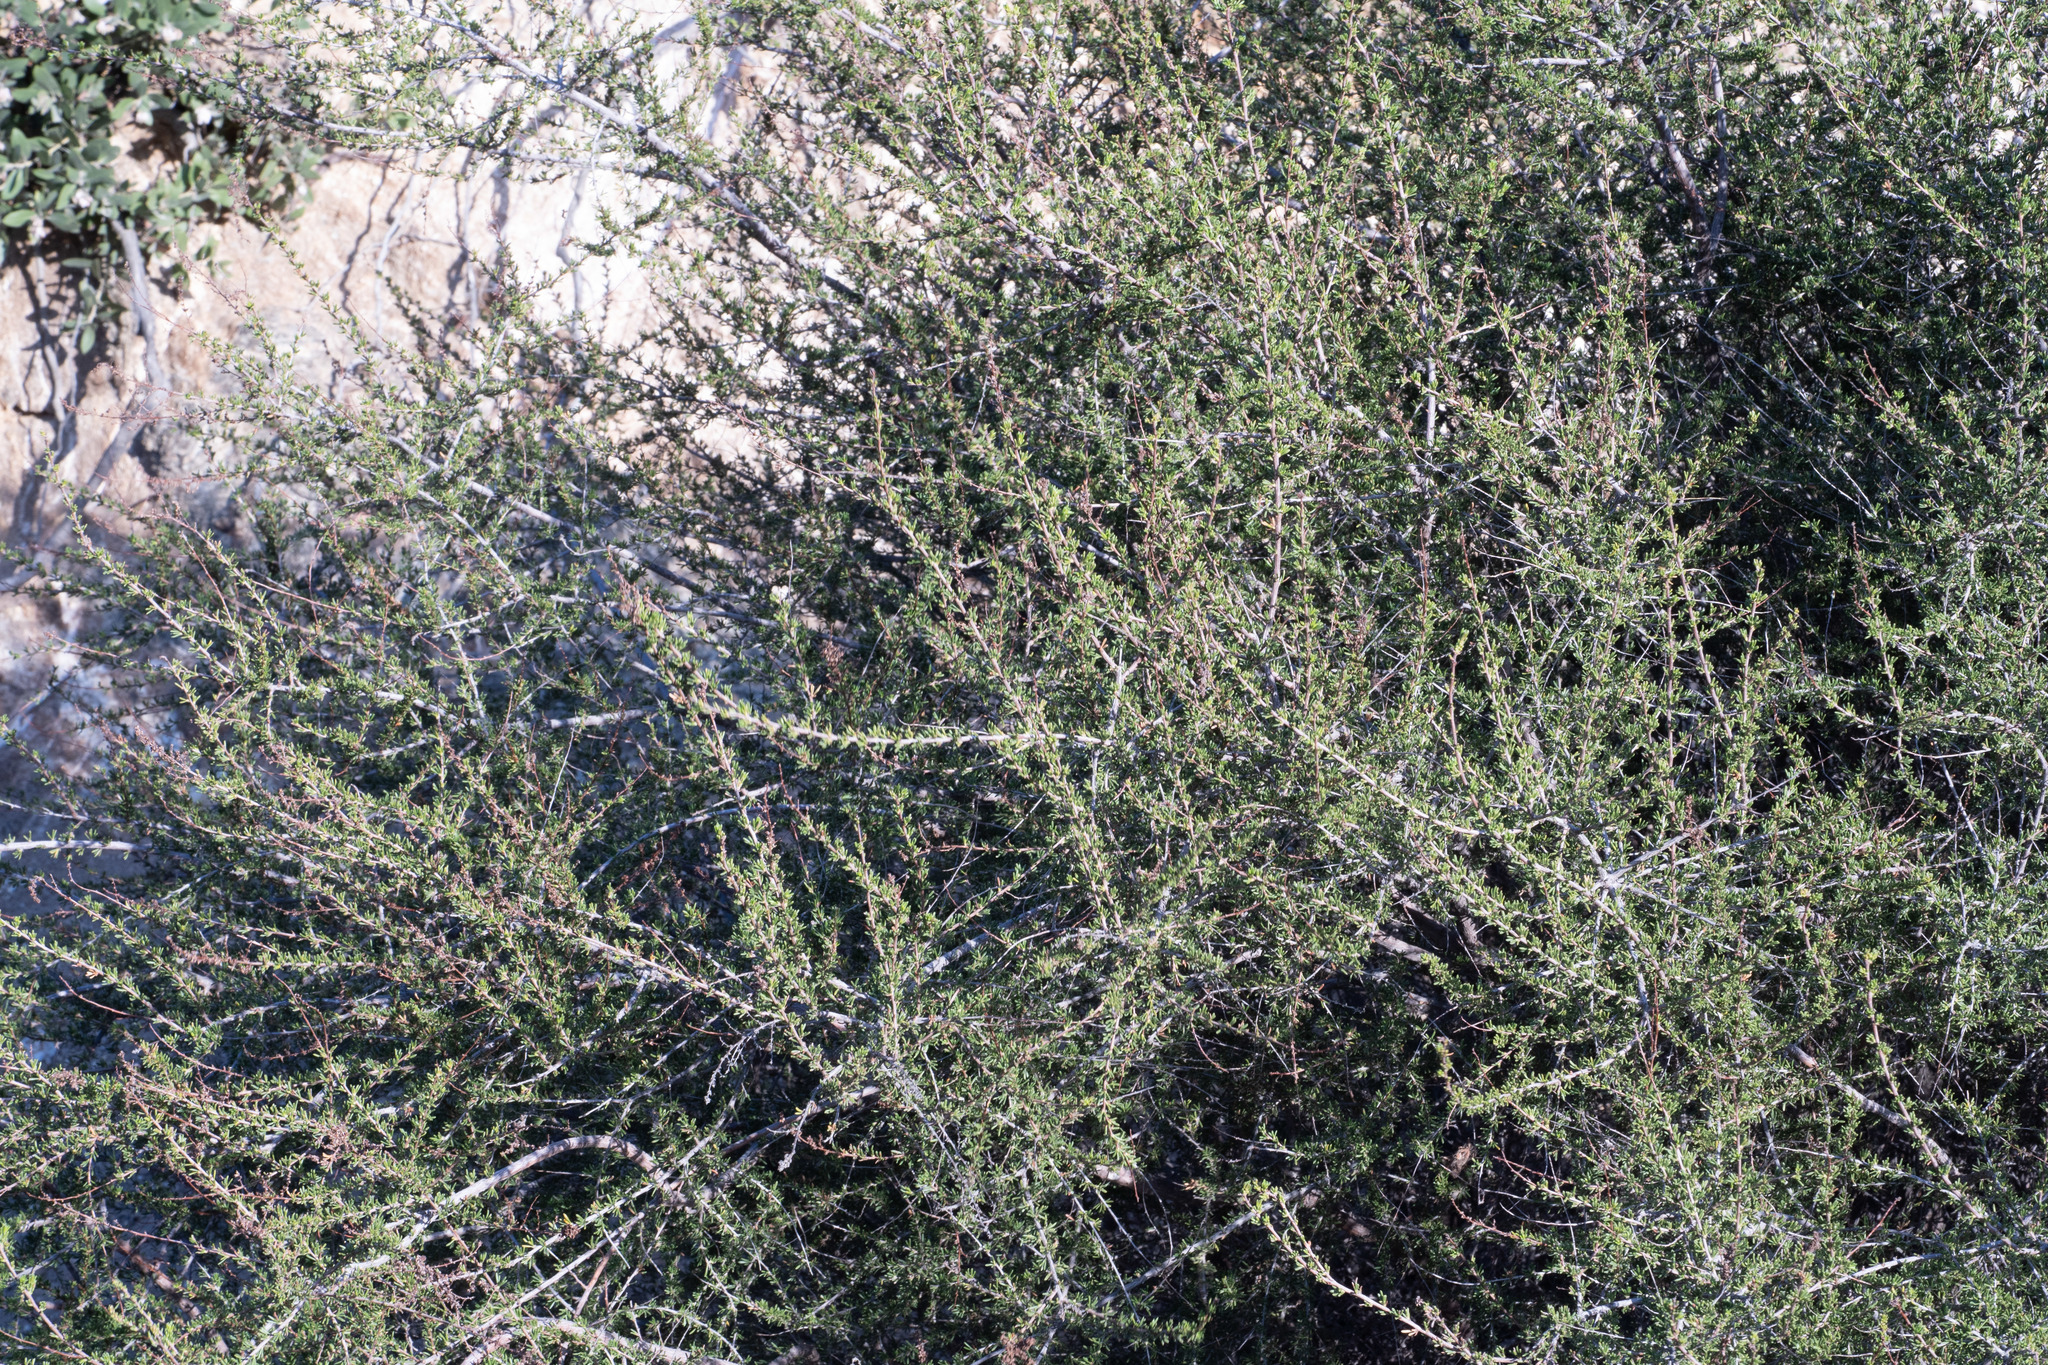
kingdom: Plantae
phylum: Tracheophyta
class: Magnoliopsida
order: Rosales
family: Rosaceae
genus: Adenostoma
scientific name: Adenostoma fasciculatum
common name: Chamise
